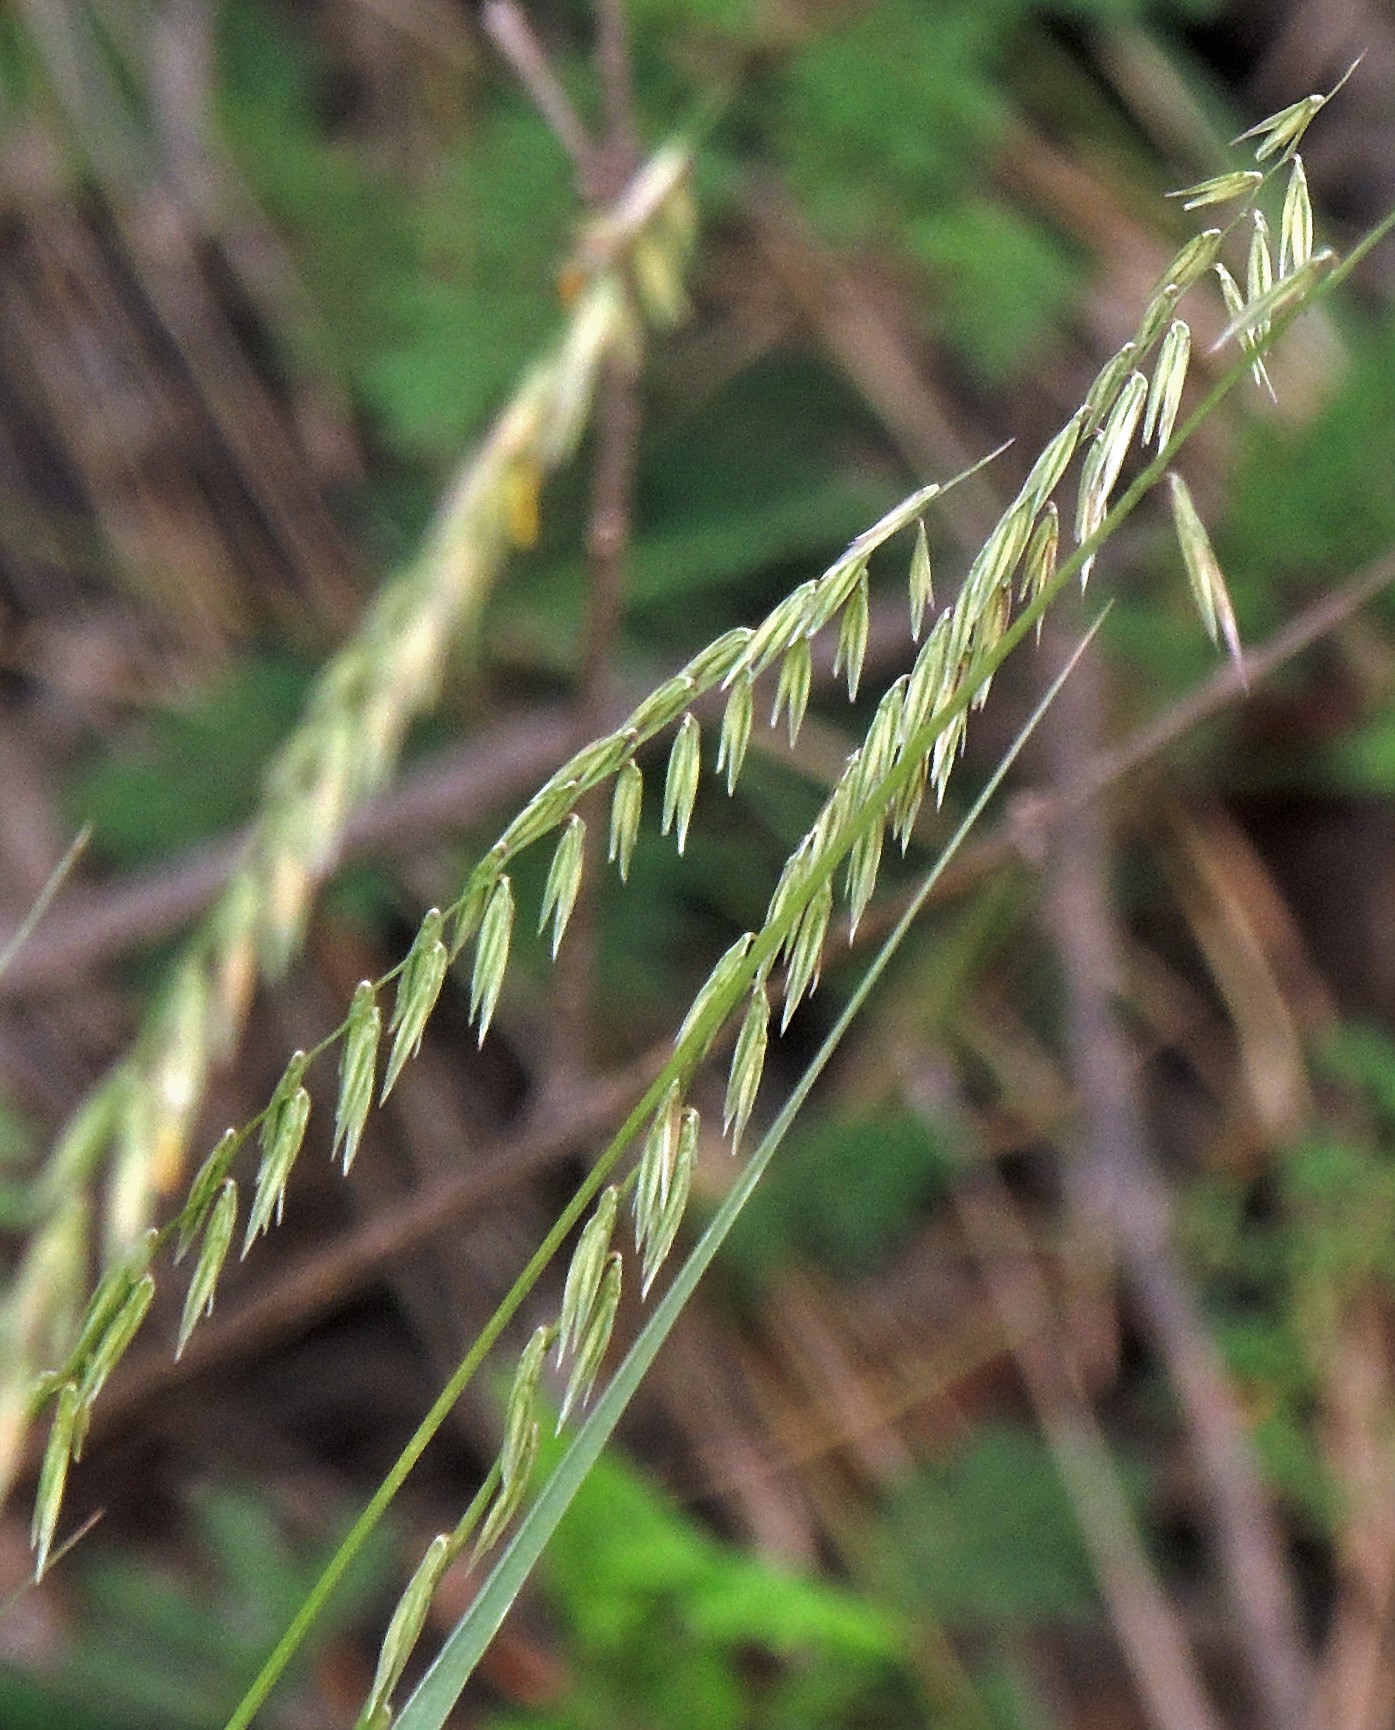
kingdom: Plantae
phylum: Tracheophyta
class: Liliopsida
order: Poales
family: Poaceae
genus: Melica
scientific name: Melica macra
